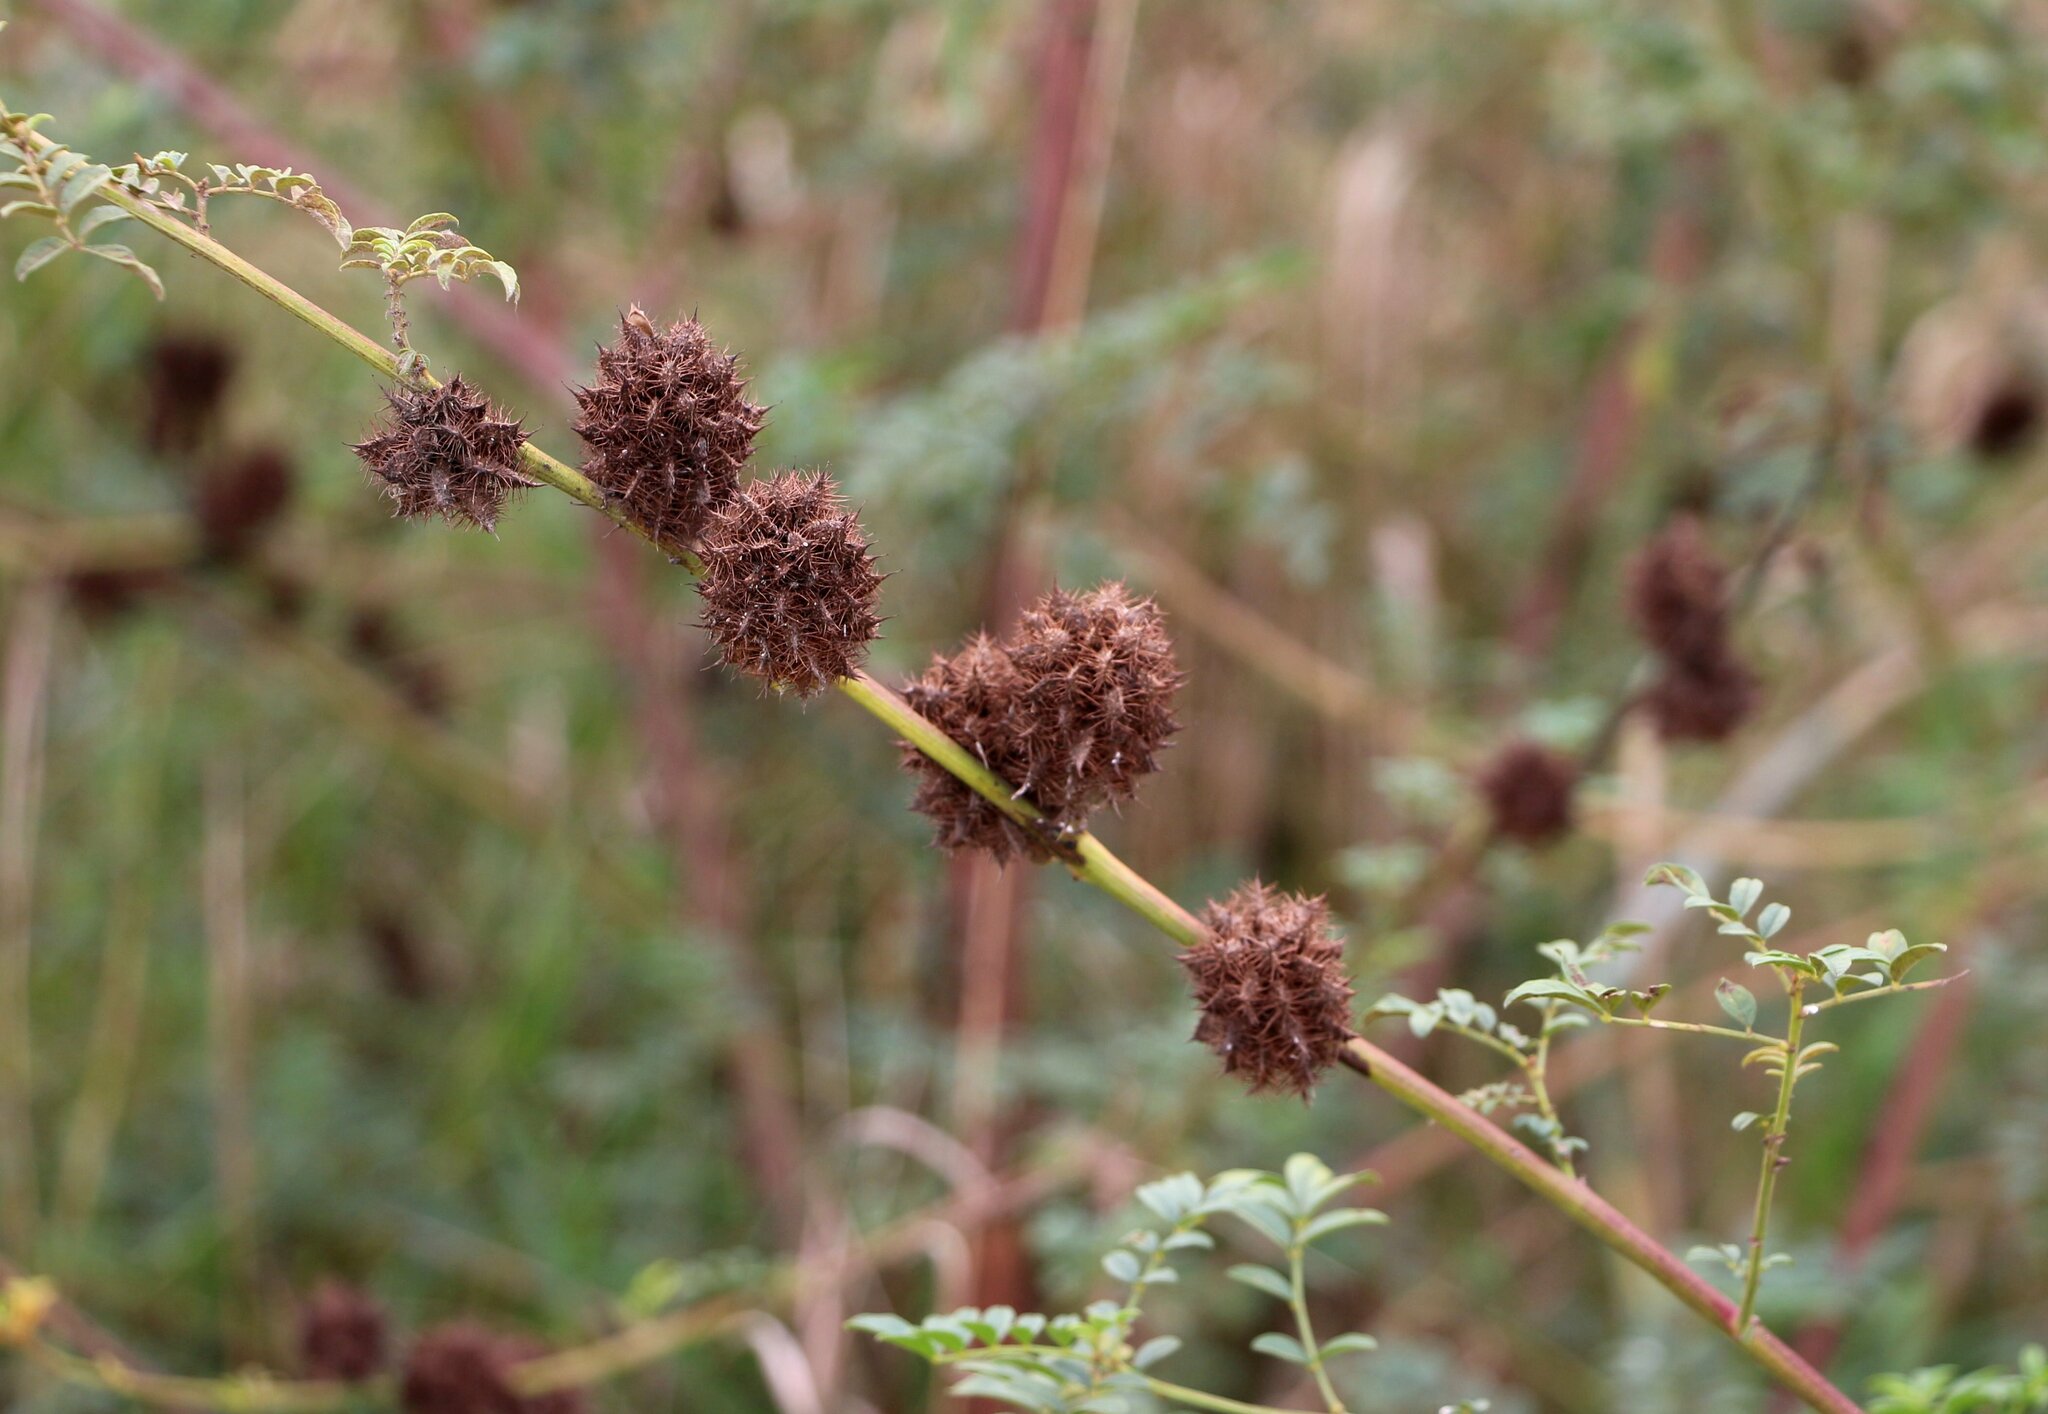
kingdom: Plantae
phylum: Tracheophyta
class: Magnoliopsida
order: Fabales
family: Fabaceae
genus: Glycyrrhiza
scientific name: Glycyrrhiza echinata
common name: German liquorice
